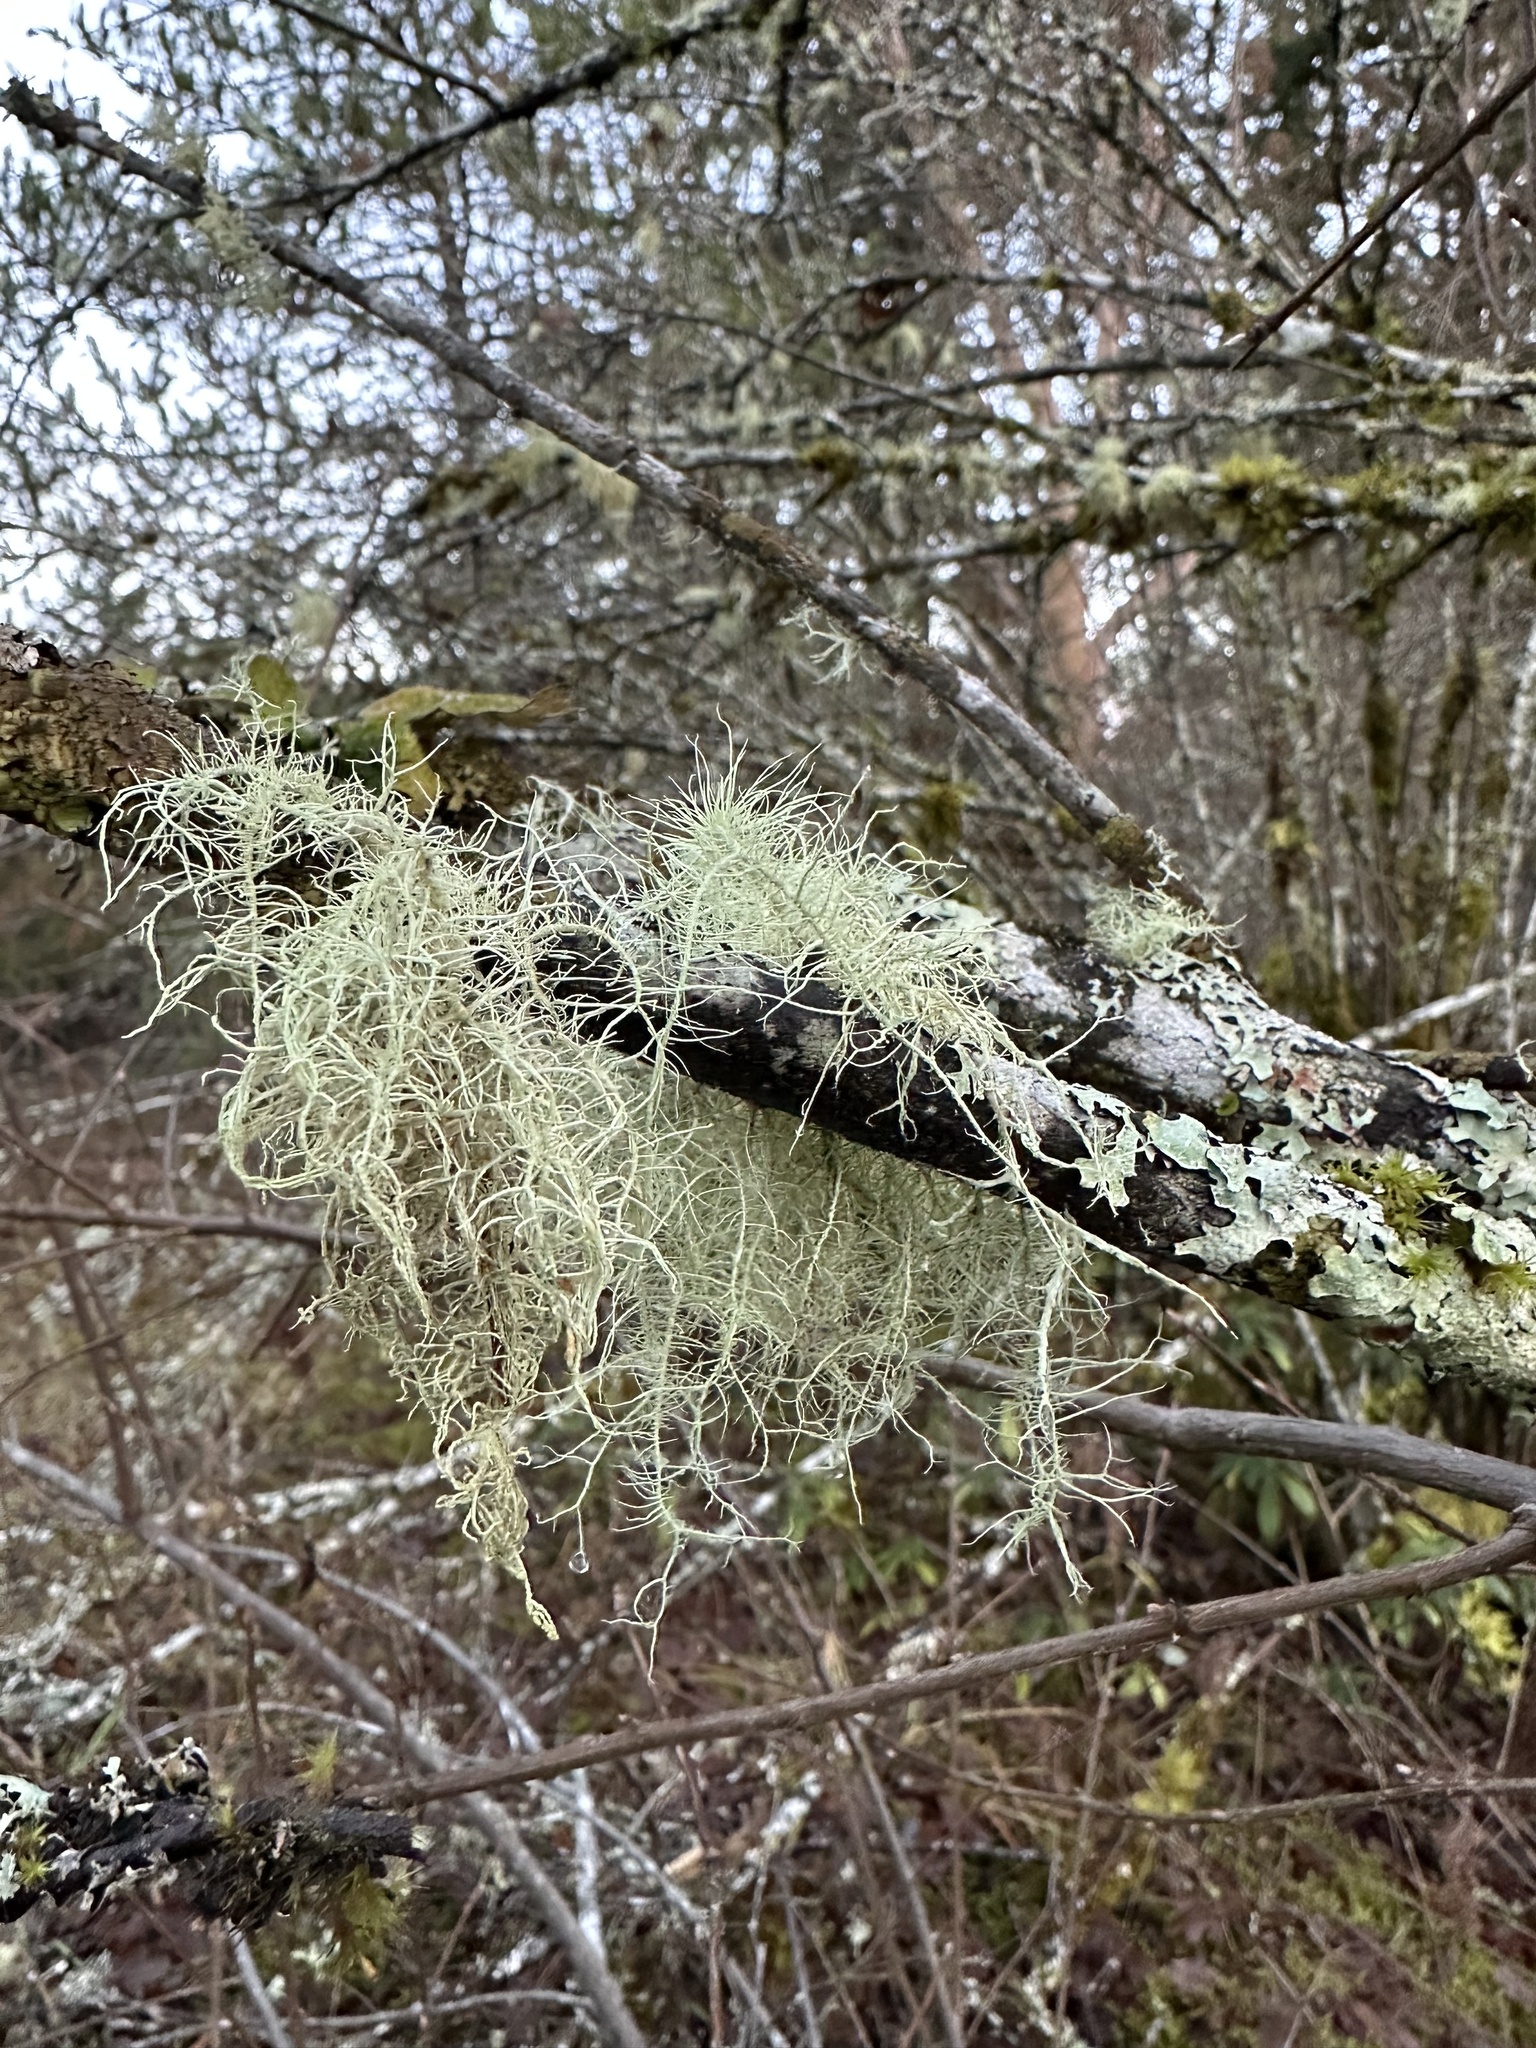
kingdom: Fungi
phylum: Ascomycota
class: Lecanoromycetes
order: Lecanorales
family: Parmeliaceae
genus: Usnea
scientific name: Usnea dasopoga
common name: Fishbone beard lichen
